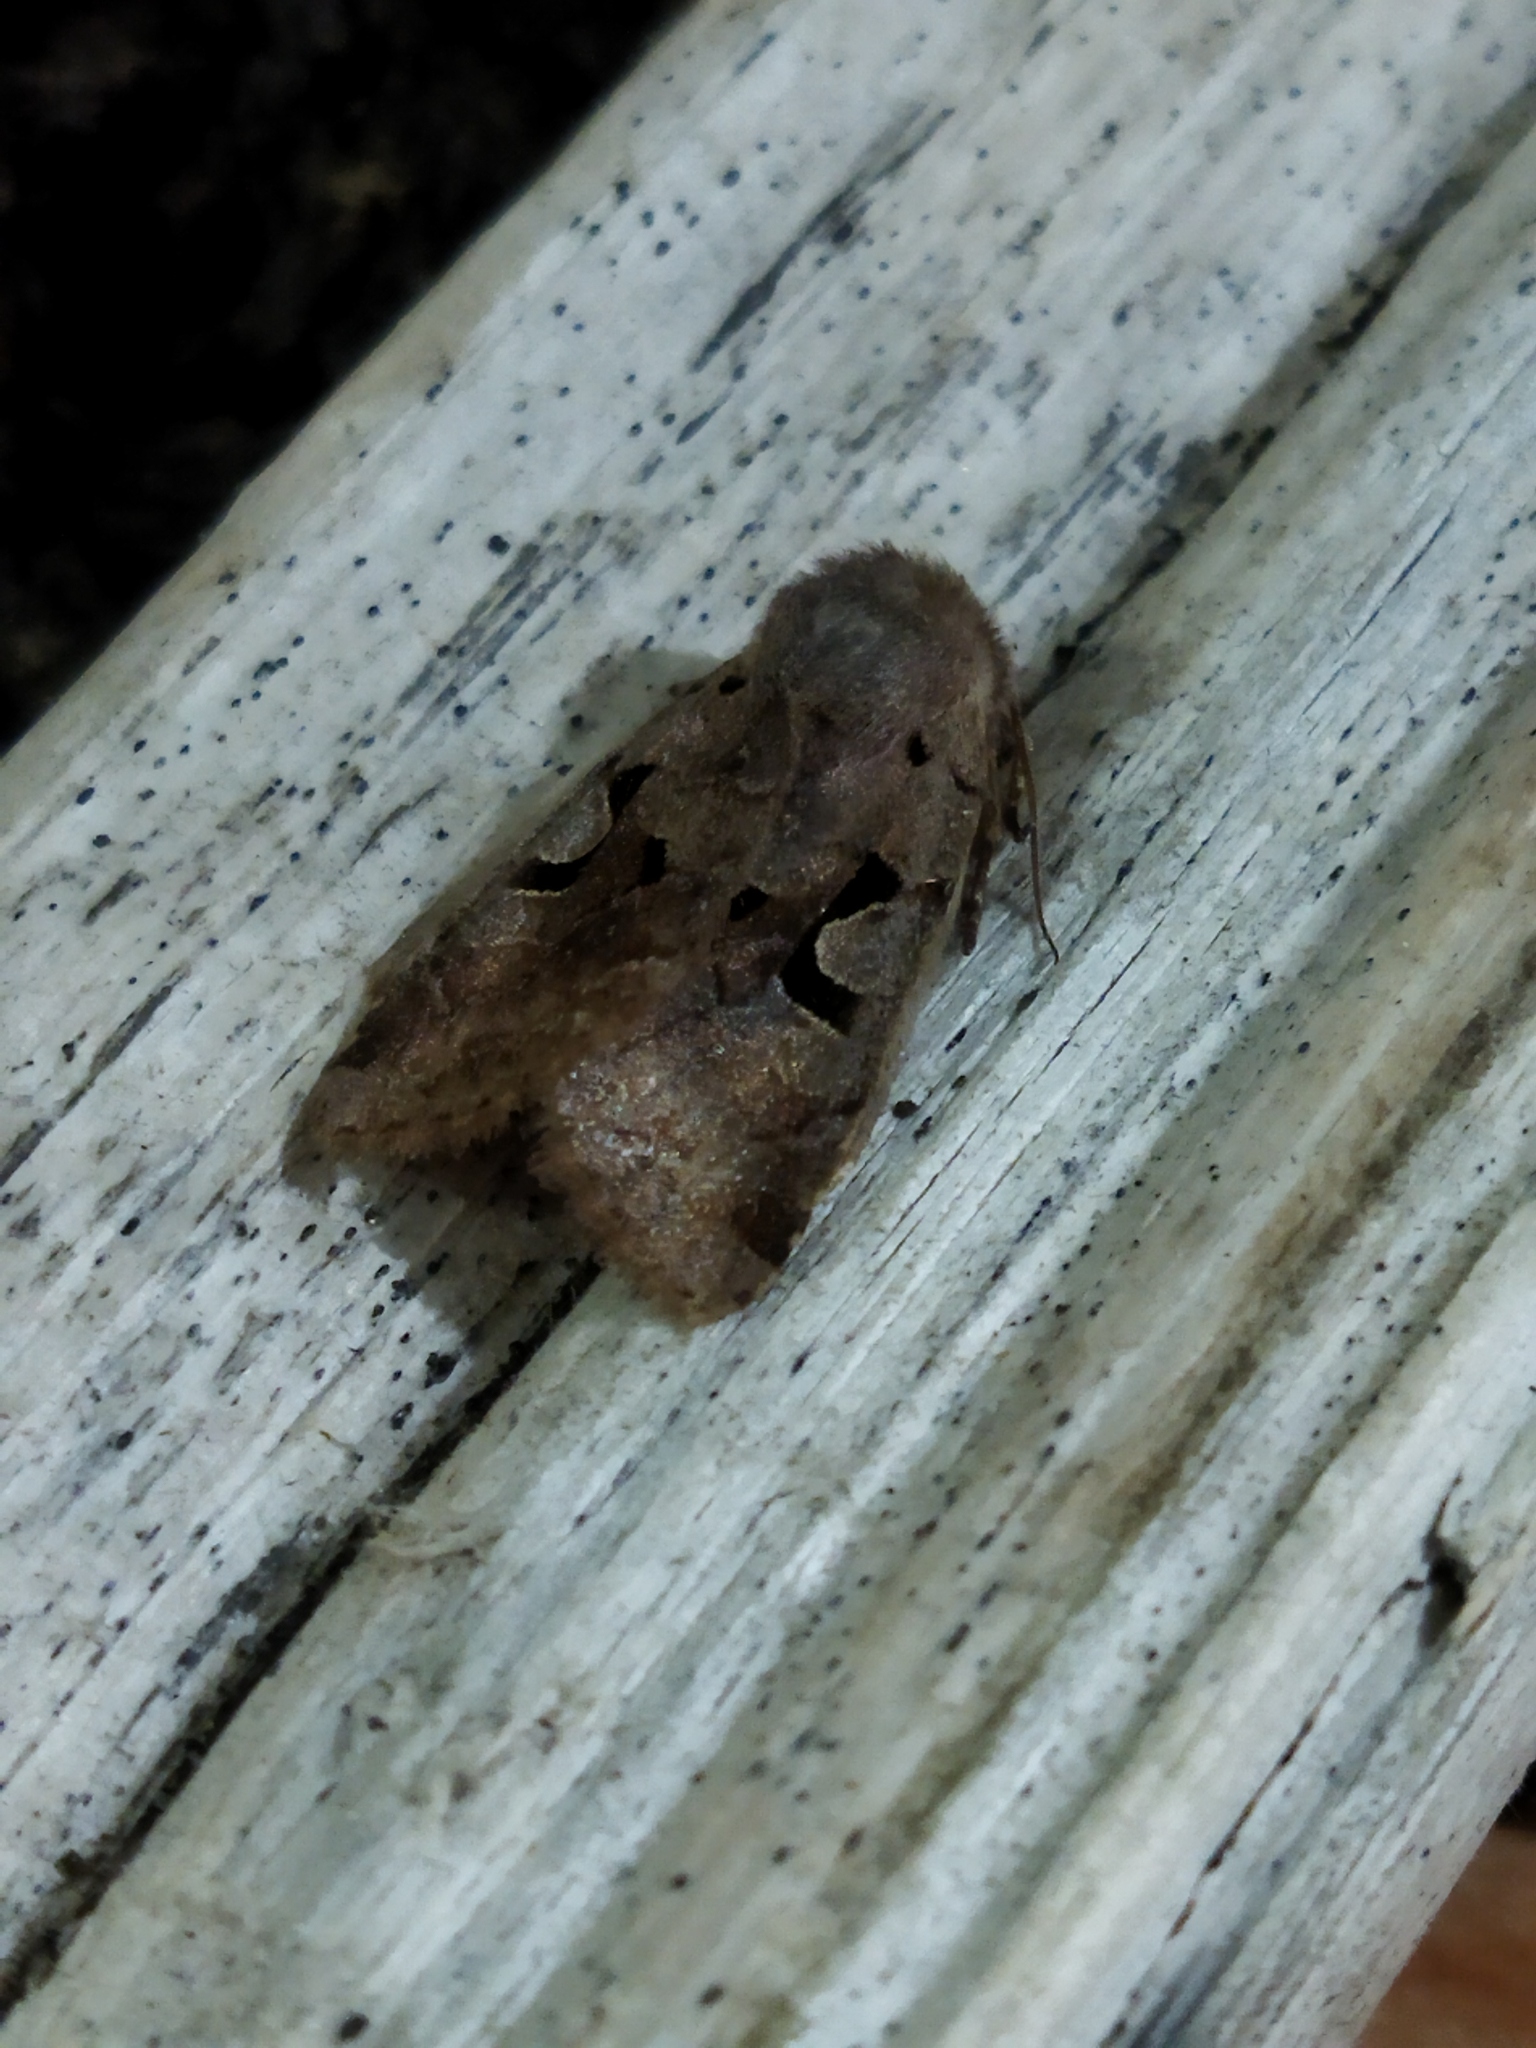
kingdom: Animalia
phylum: Arthropoda
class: Insecta
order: Lepidoptera
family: Noctuidae
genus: Orthosia
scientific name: Orthosia gothica
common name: Hebrew character
